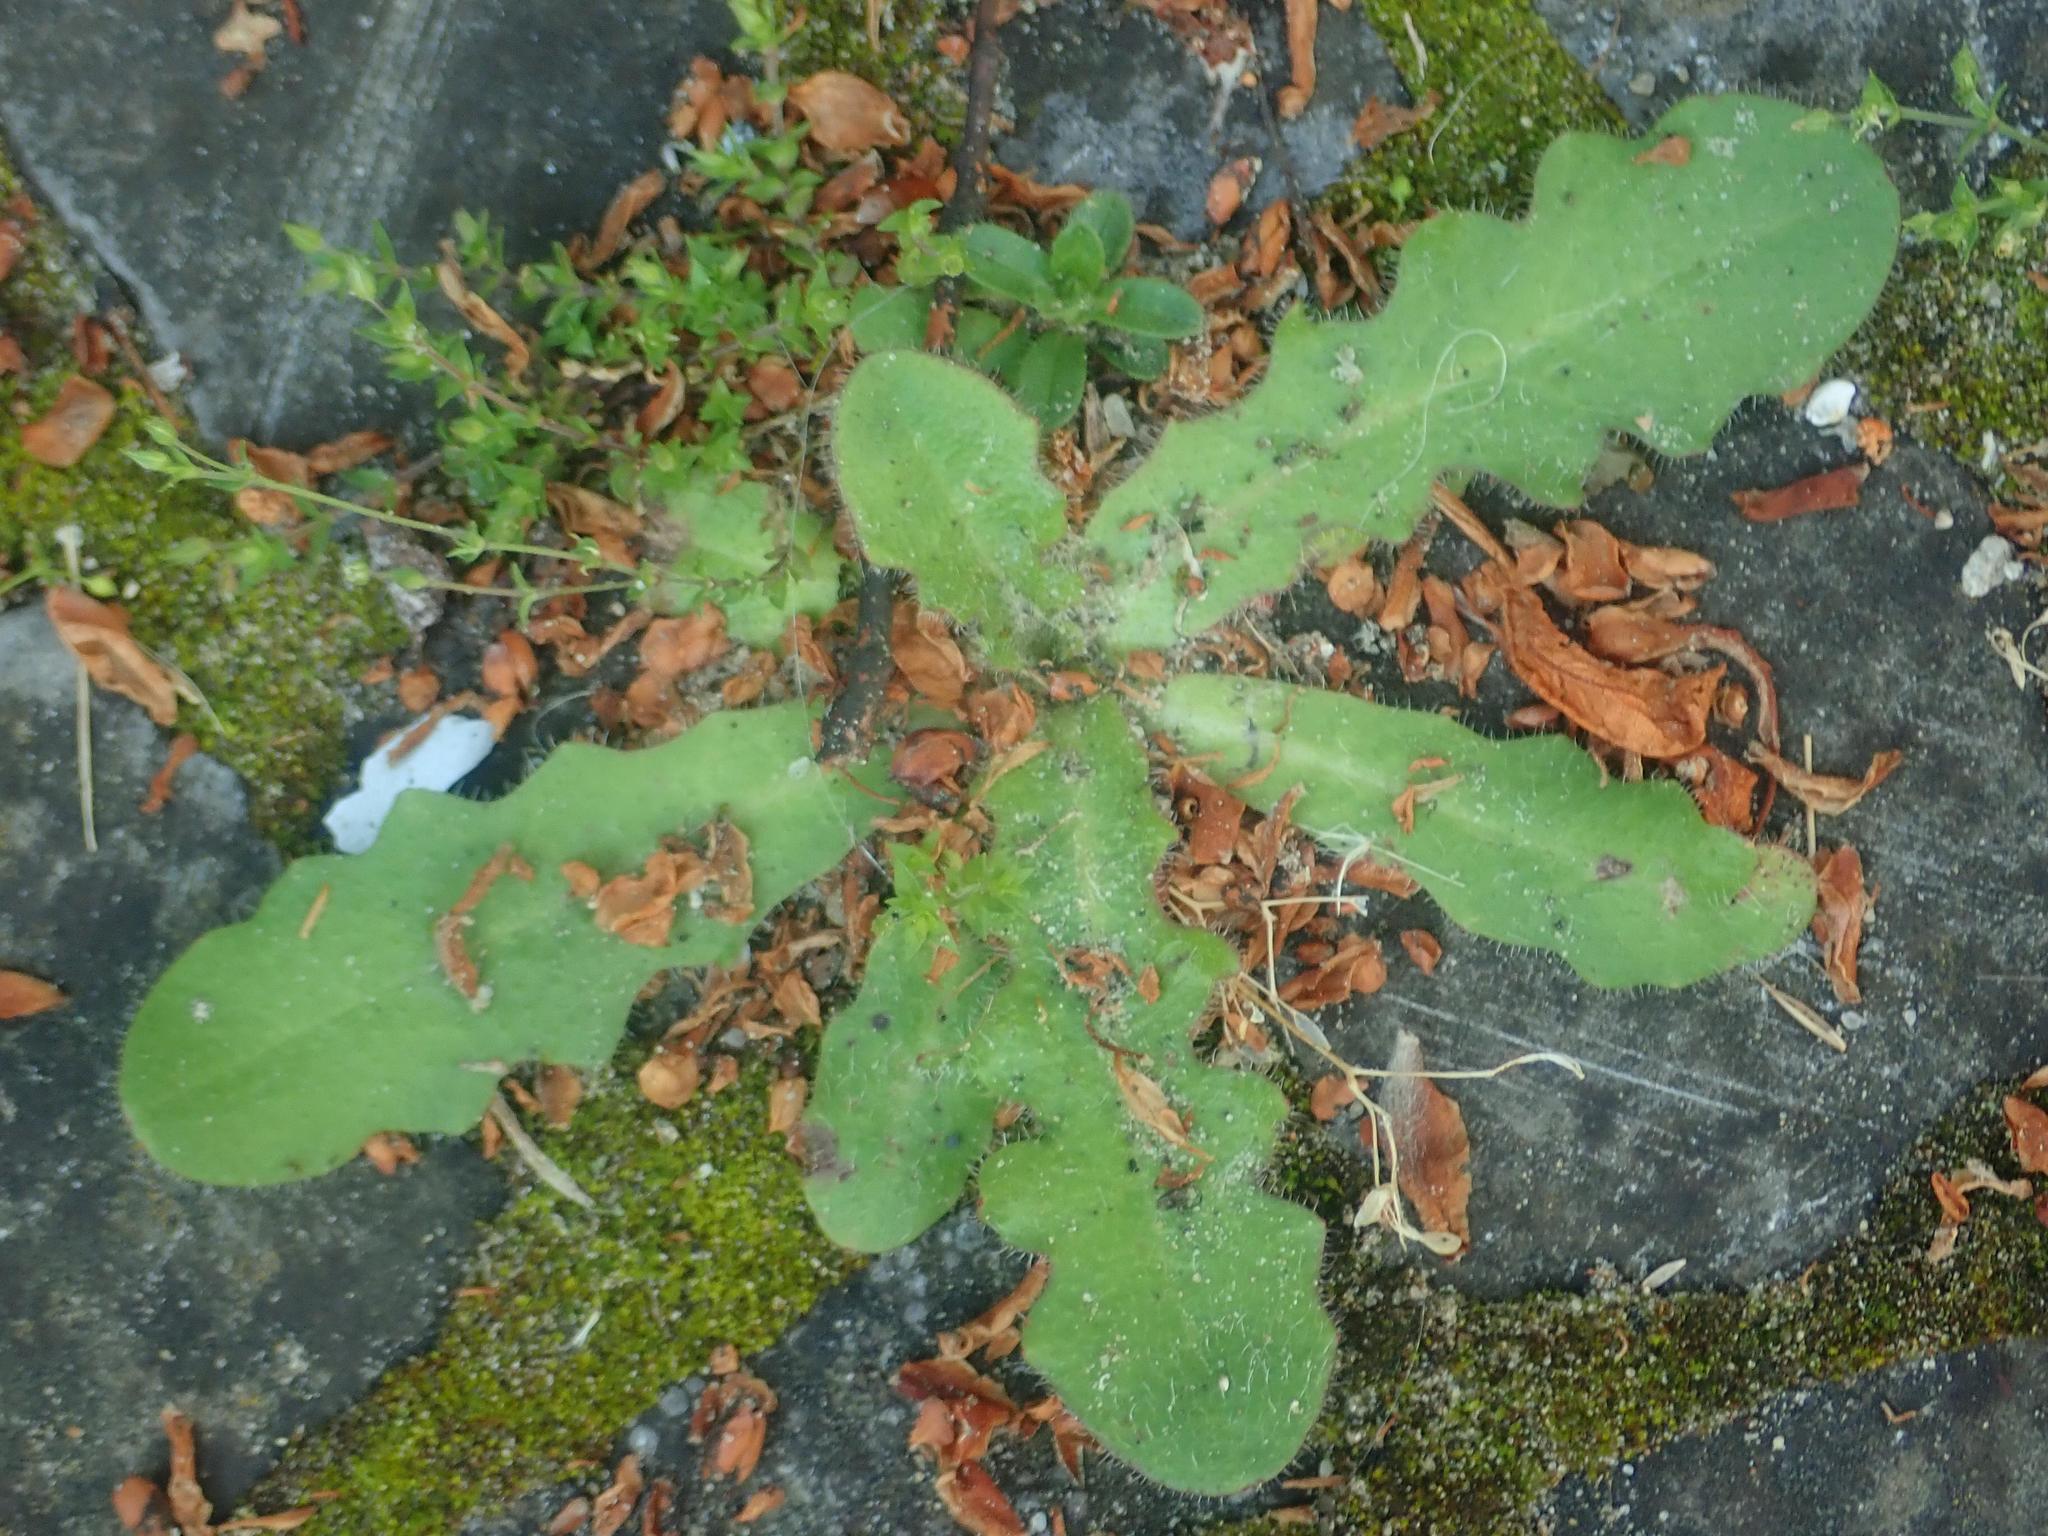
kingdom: Plantae
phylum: Tracheophyta
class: Magnoliopsida
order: Asterales
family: Asteraceae
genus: Hypochaeris
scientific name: Hypochaeris radicata
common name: Flatweed
